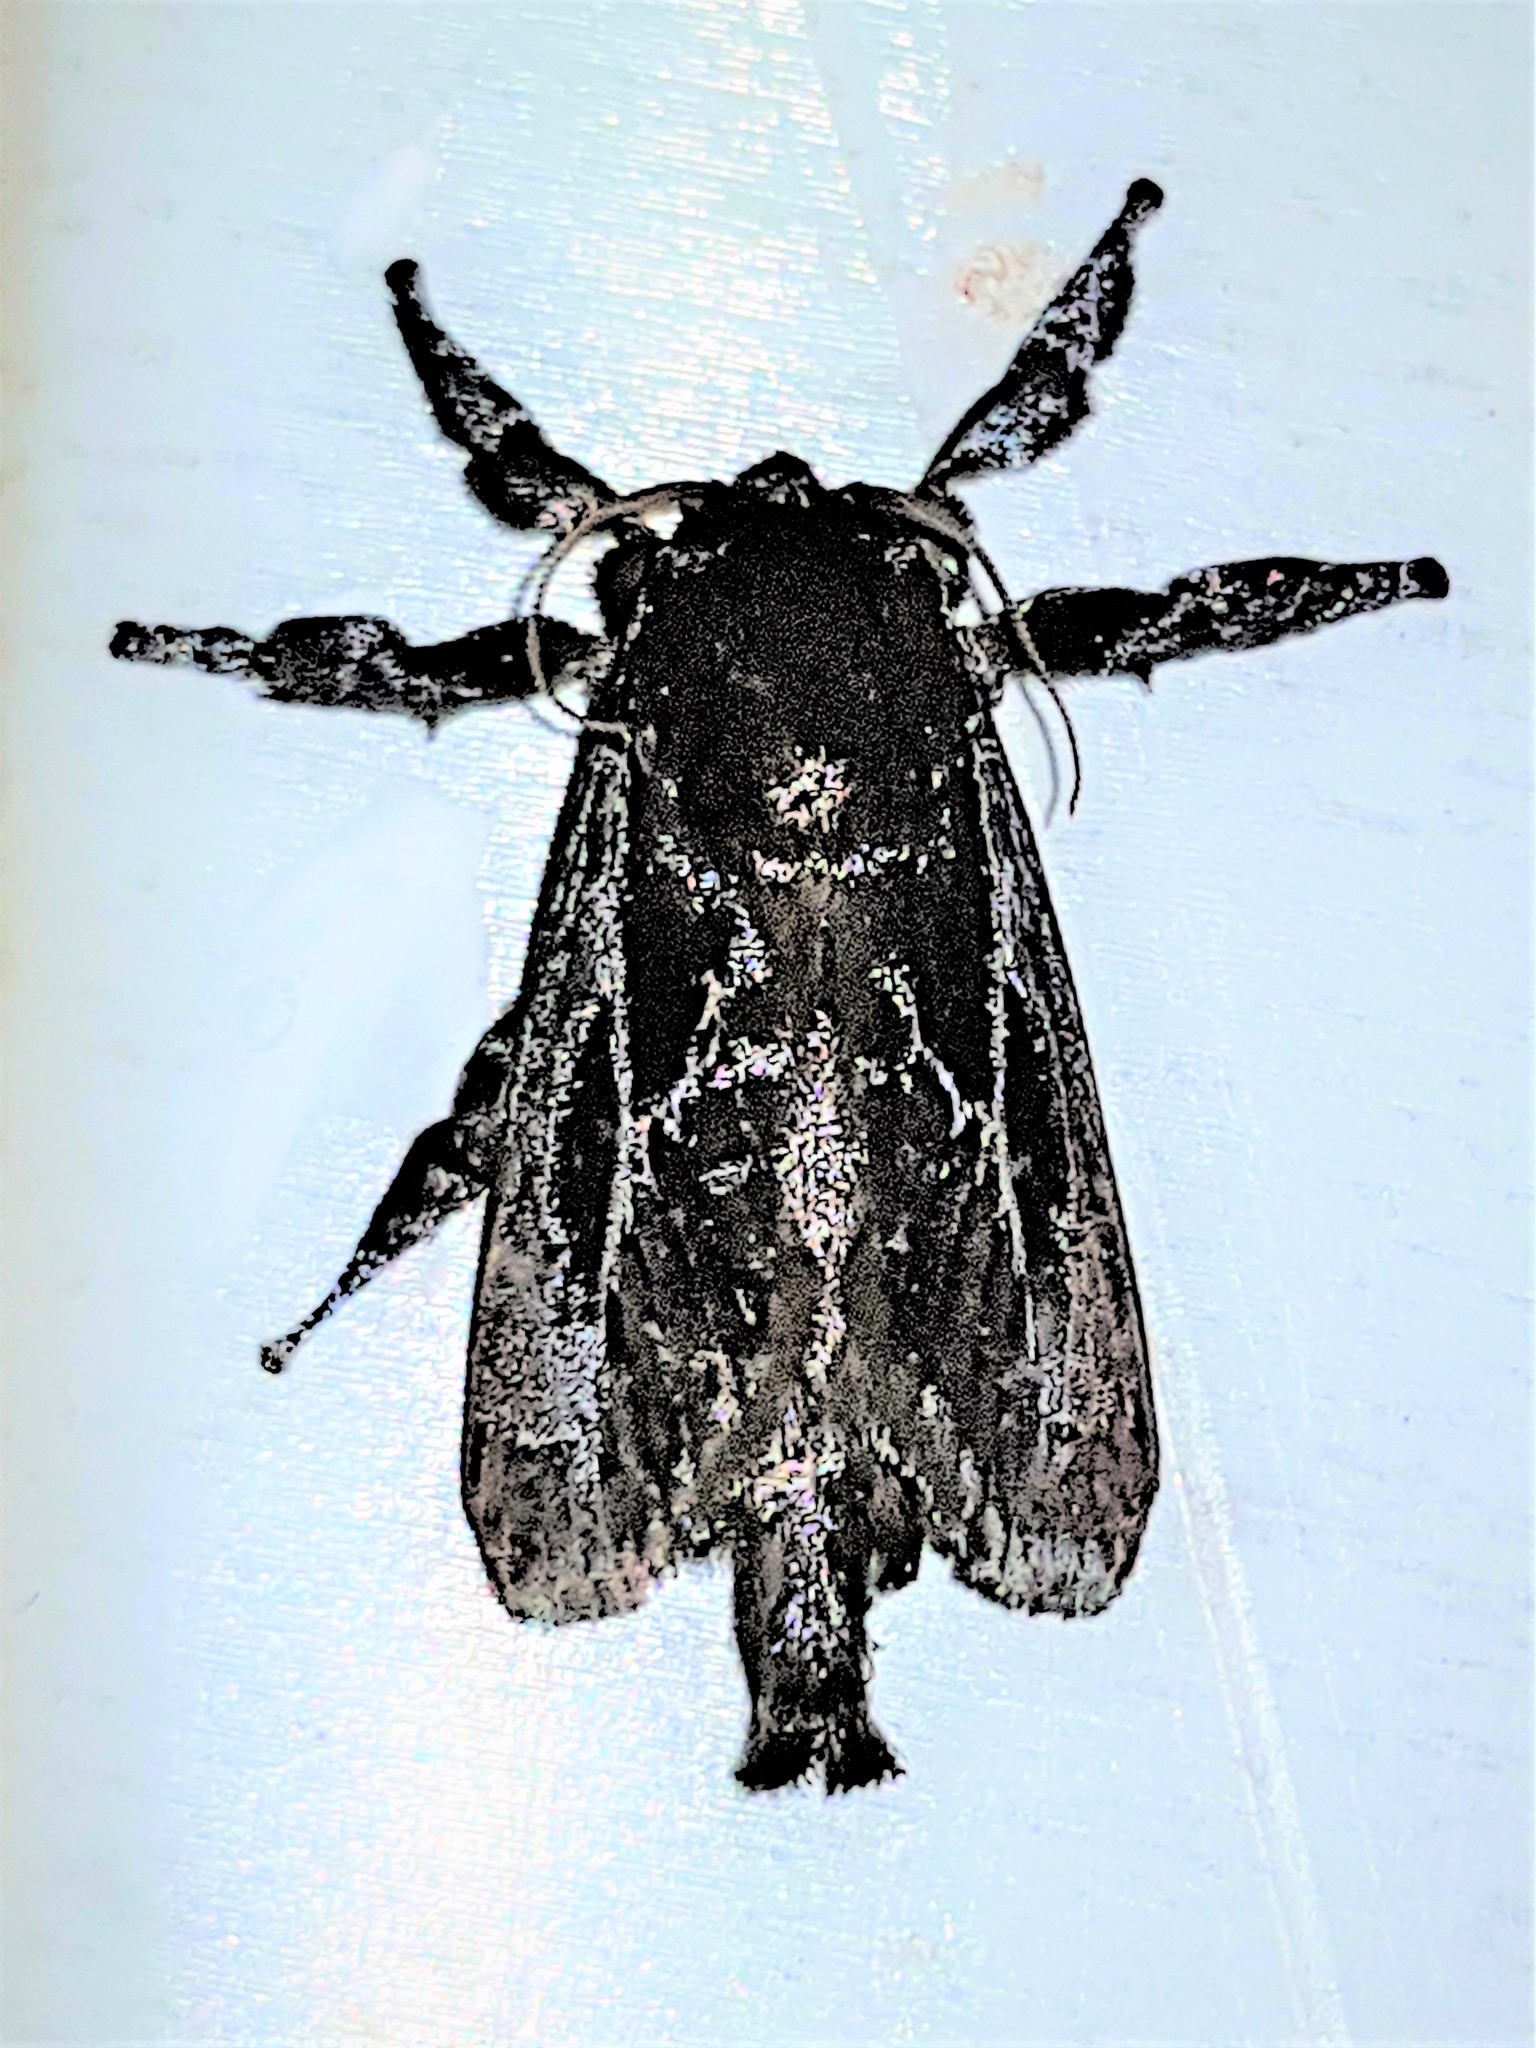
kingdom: Animalia
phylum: Arthropoda
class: Insecta
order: Lepidoptera
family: Limacodidae
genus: Sibine
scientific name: Sibine nesea
